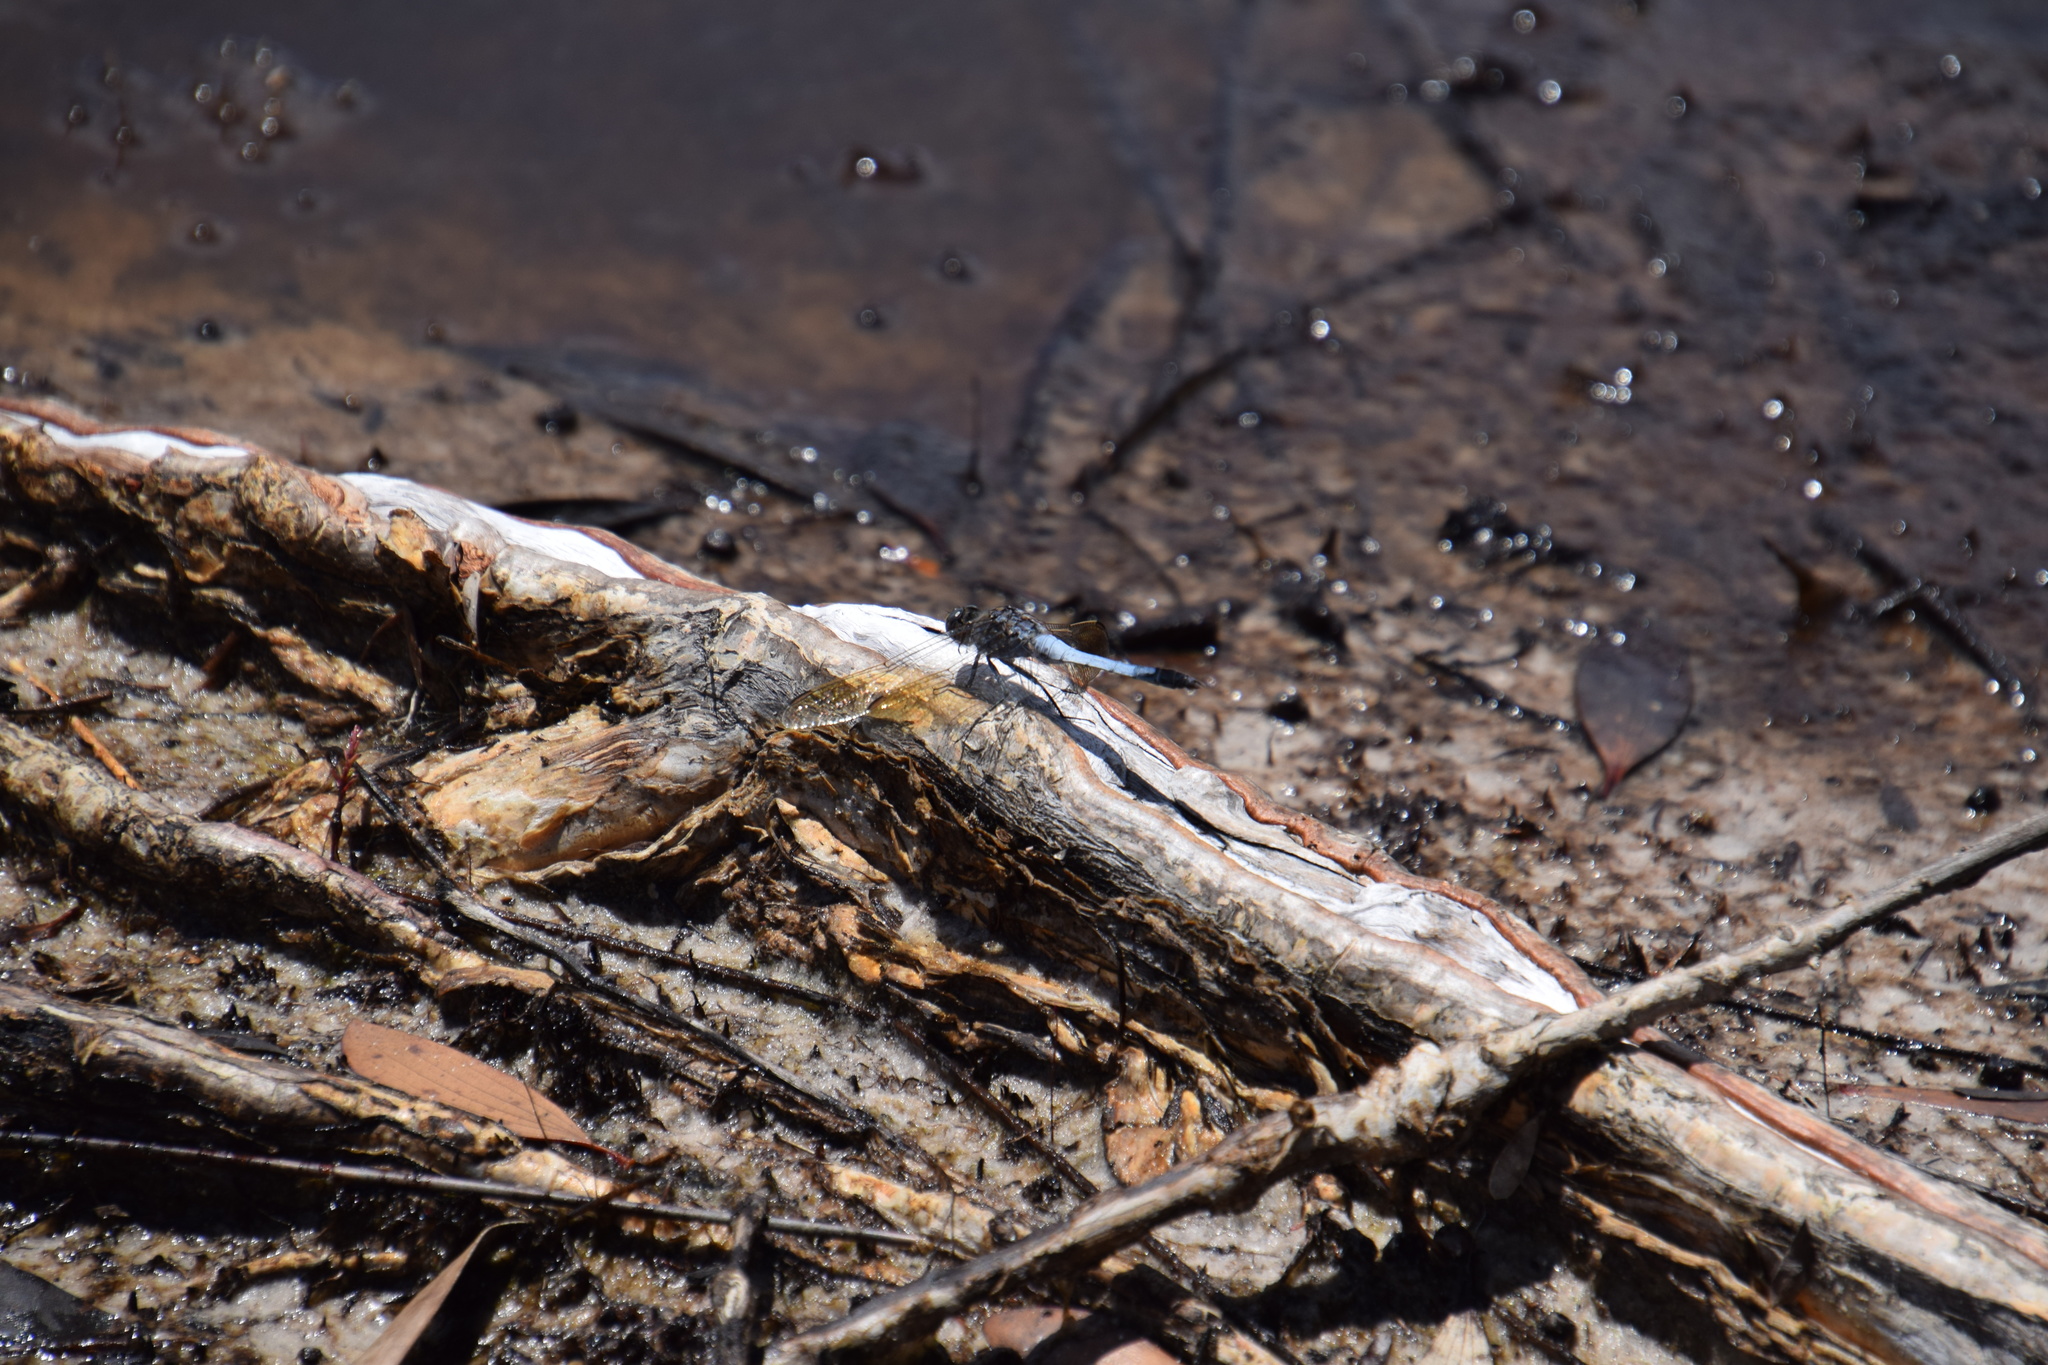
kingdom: Animalia
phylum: Arthropoda
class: Insecta
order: Odonata
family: Libellulidae
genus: Orthetrum
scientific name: Orthetrum caledonicum
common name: Blue skimmer
